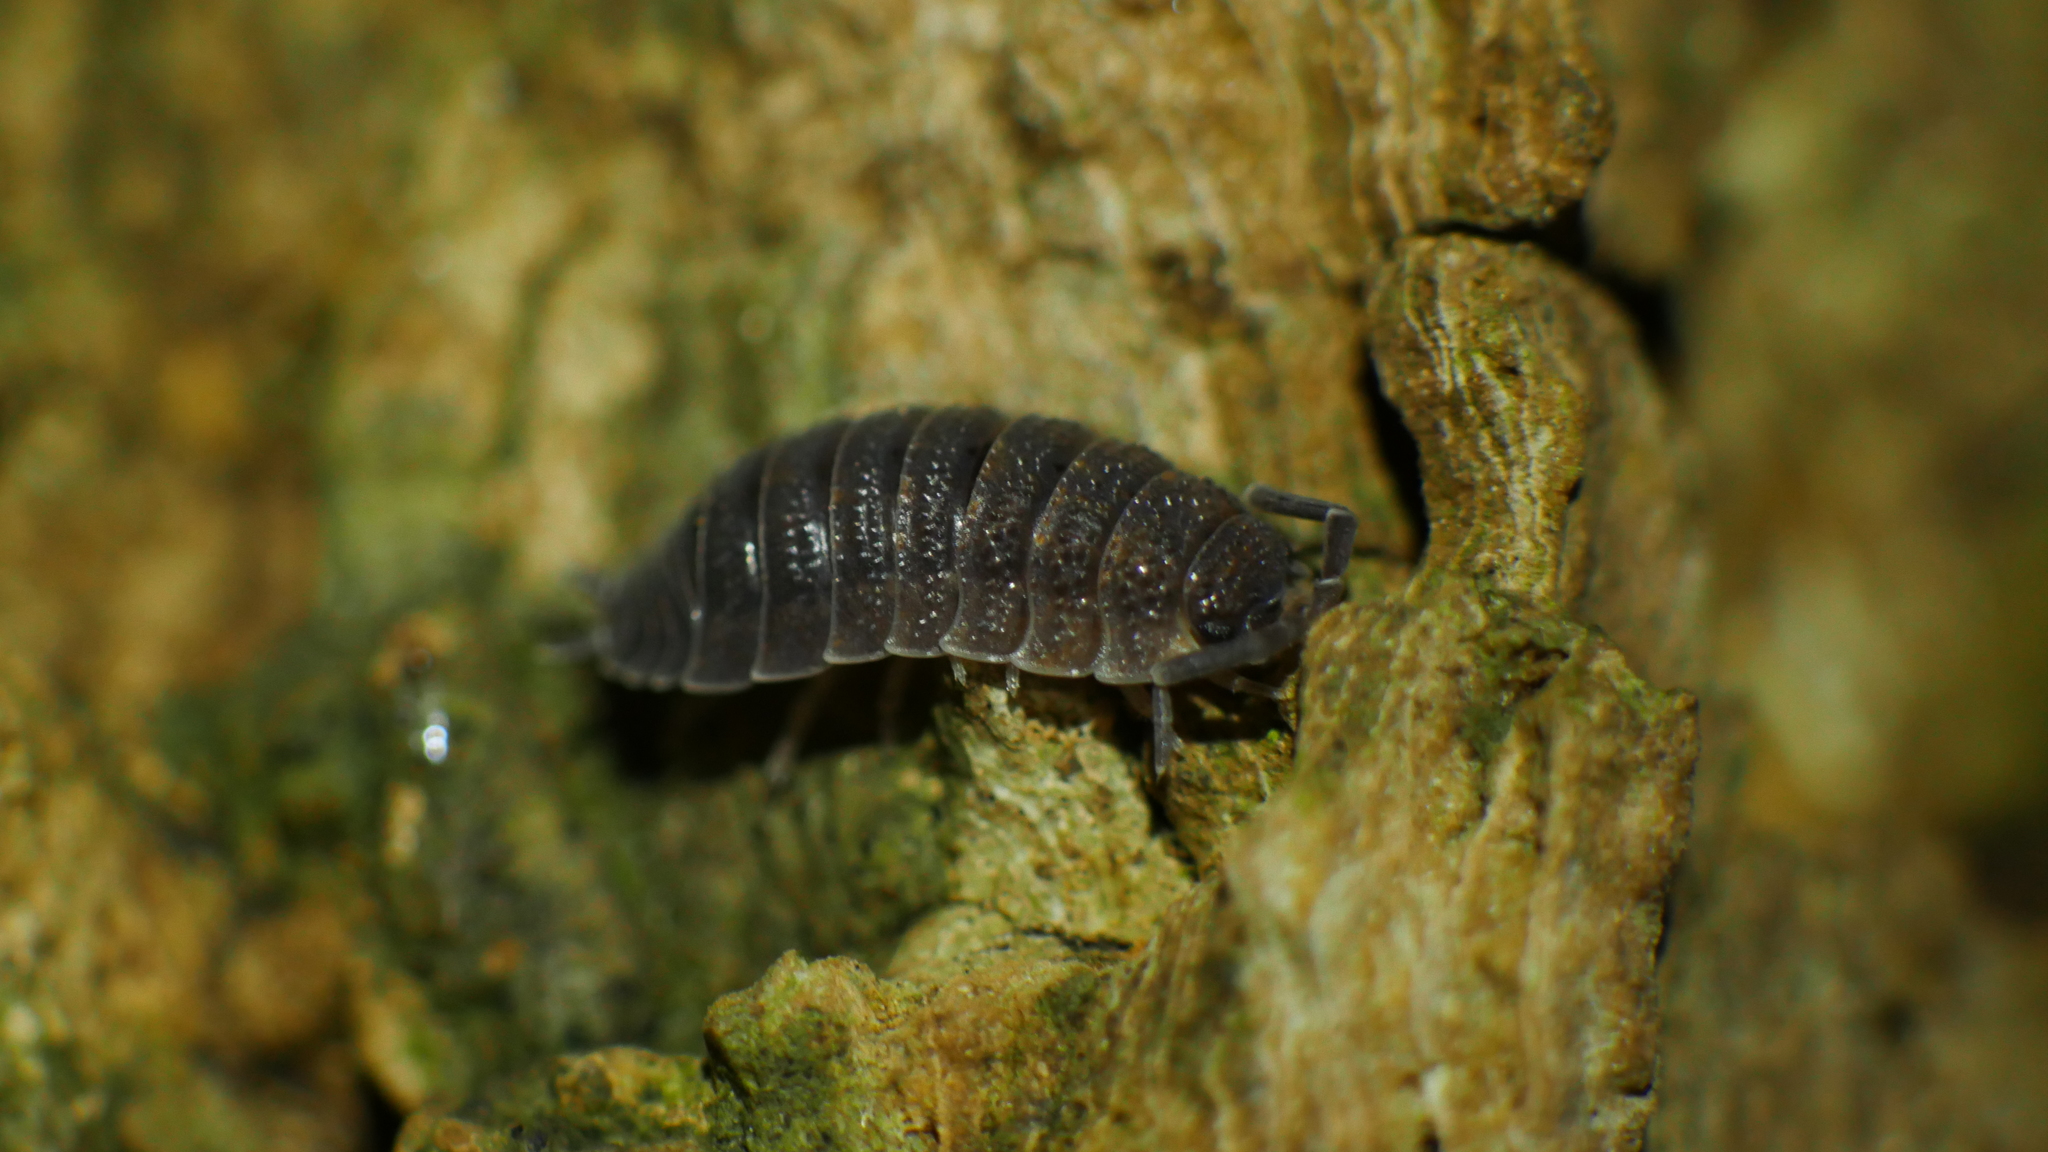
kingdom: Animalia
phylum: Arthropoda
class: Malacostraca
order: Isopoda
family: Porcellionidae
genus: Porcellio
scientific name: Porcellio scaber
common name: Common rough woodlouse
